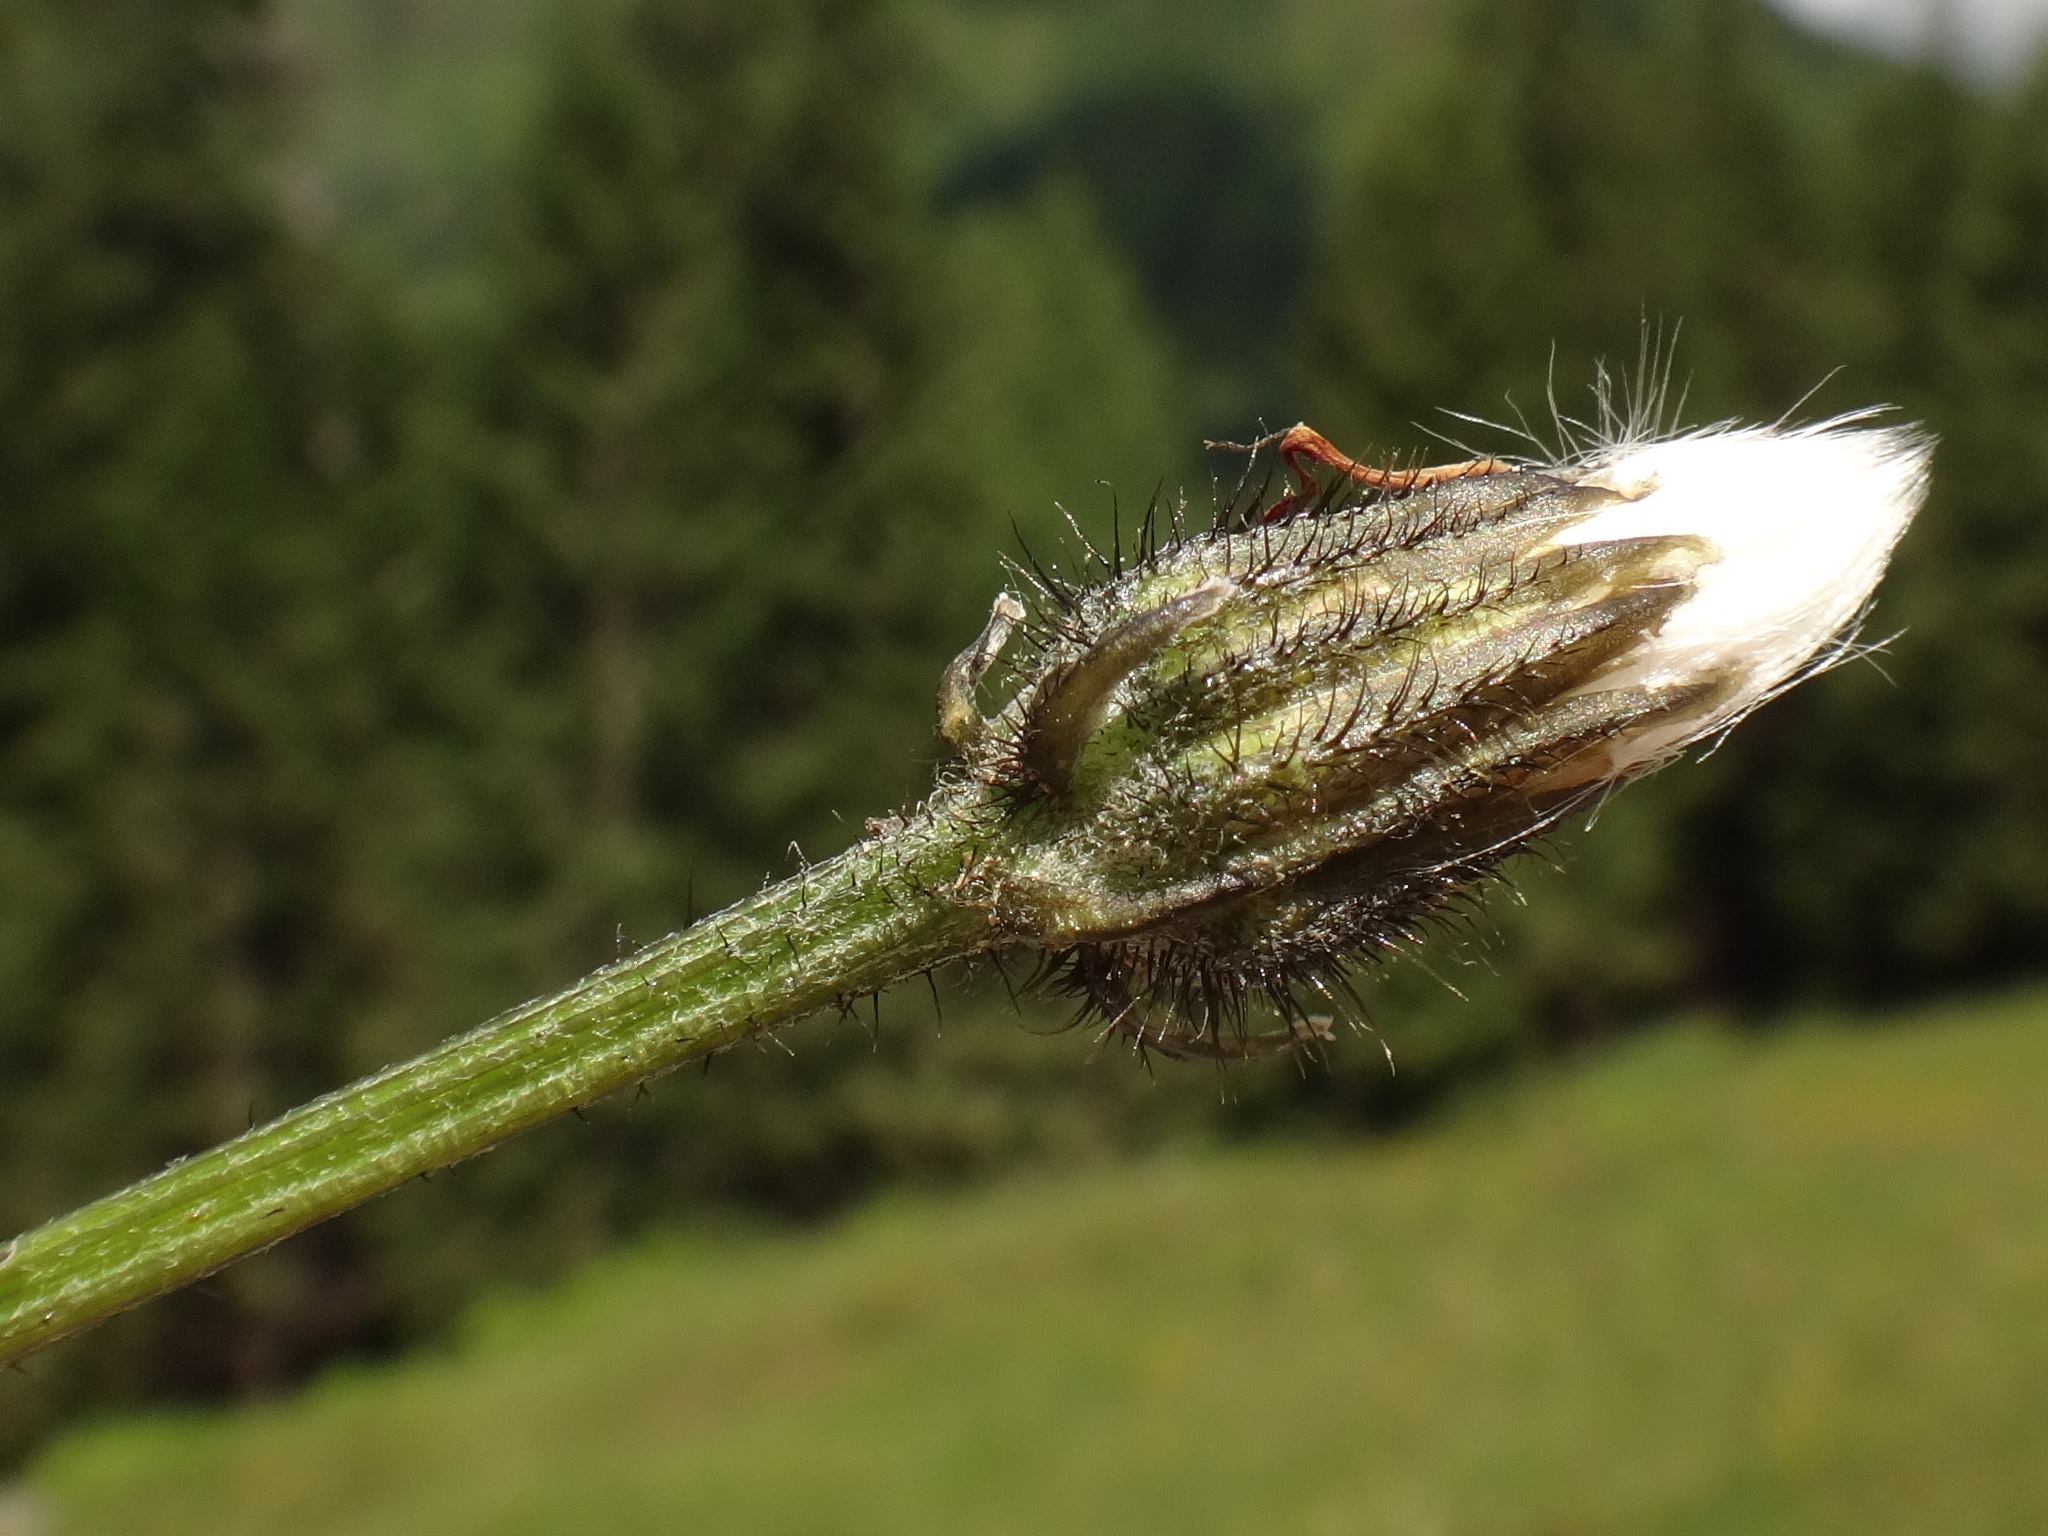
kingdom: Plantae
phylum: Tracheophyta
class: Magnoliopsida
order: Asterales
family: Asteraceae
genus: Crepis
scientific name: Crepis aurea
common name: Golden hawk's-beard
